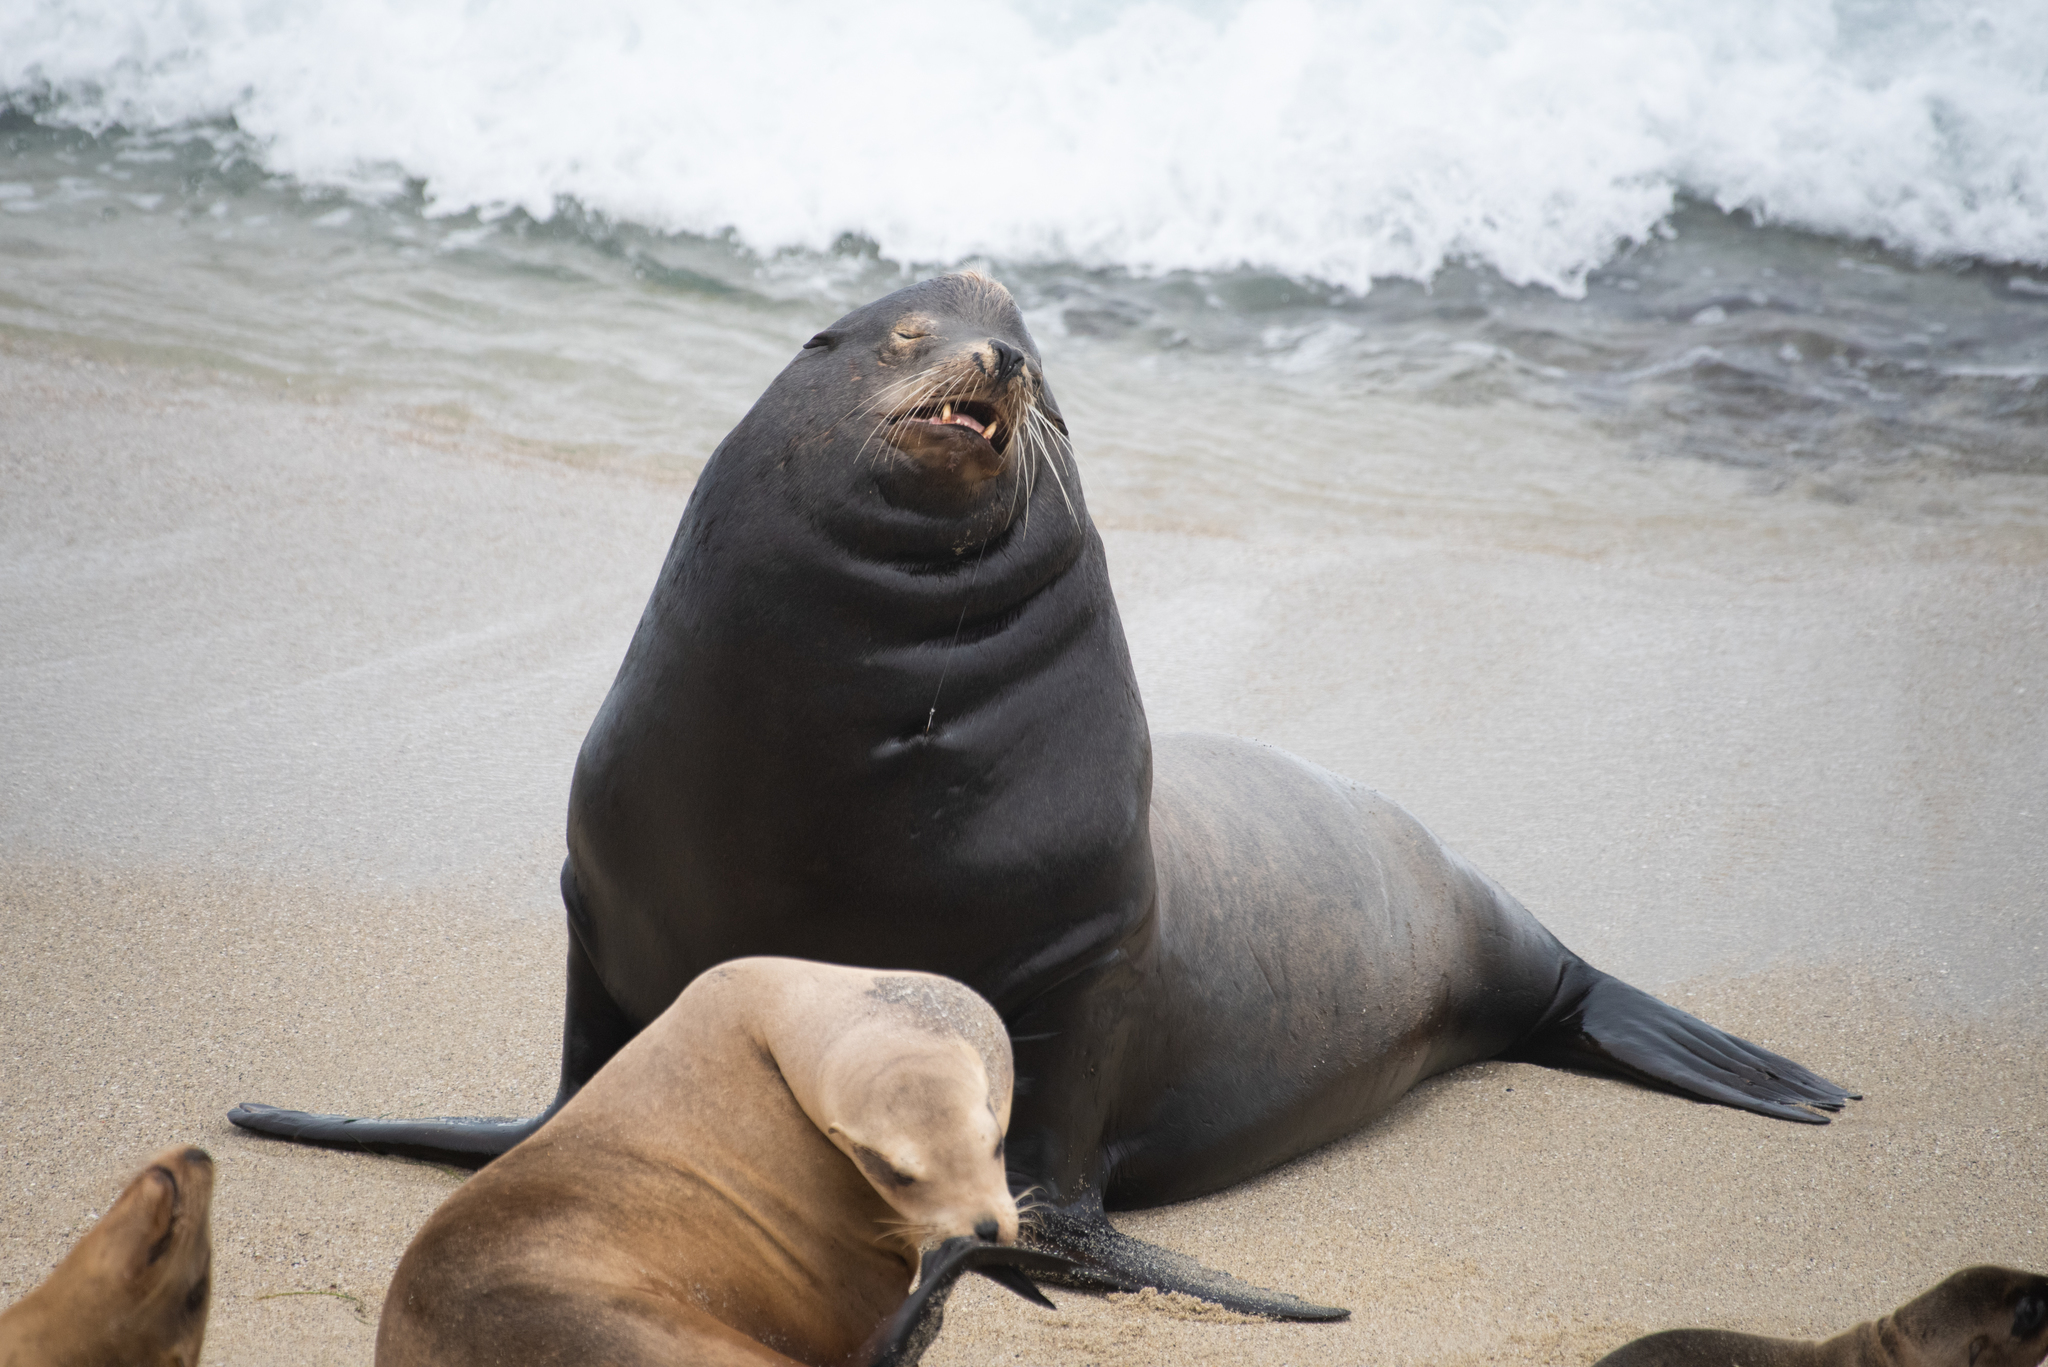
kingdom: Animalia
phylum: Chordata
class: Mammalia
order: Carnivora
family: Otariidae
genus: Zalophus
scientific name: Zalophus californianus
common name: California sea lion
